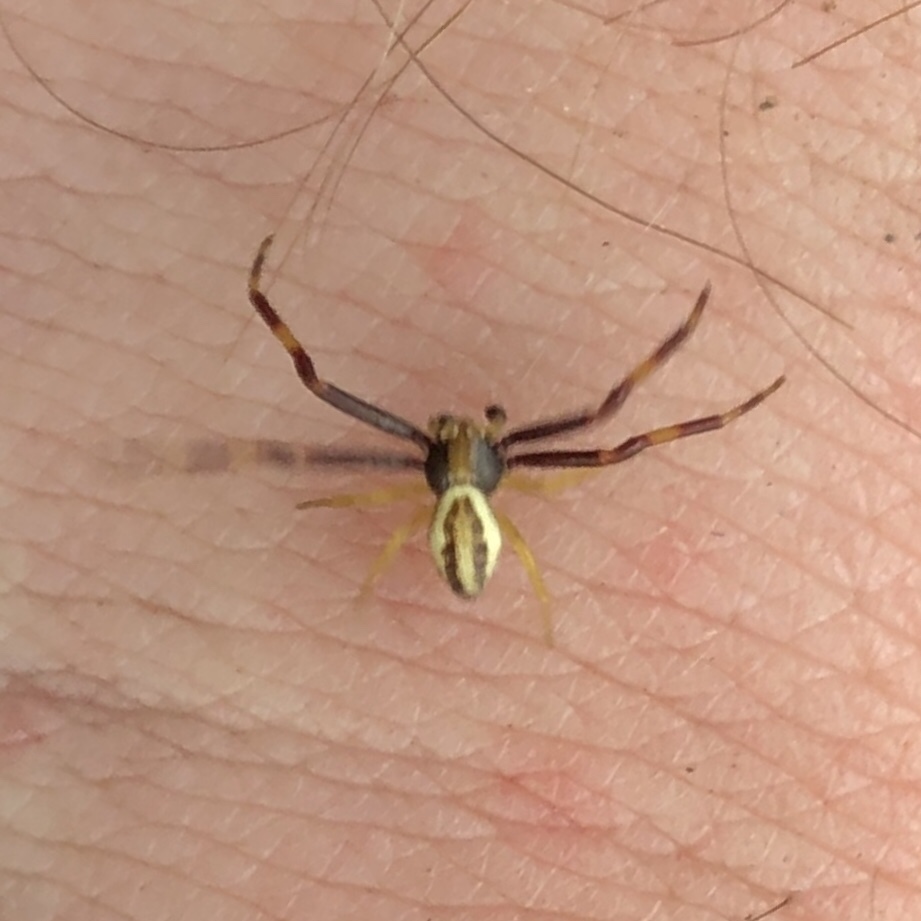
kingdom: Animalia
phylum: Arthropoda
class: Arachnida
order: Araneae
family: Thomisidae
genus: Misumena
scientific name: Misumena vatia
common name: Goldenrod crab spider
